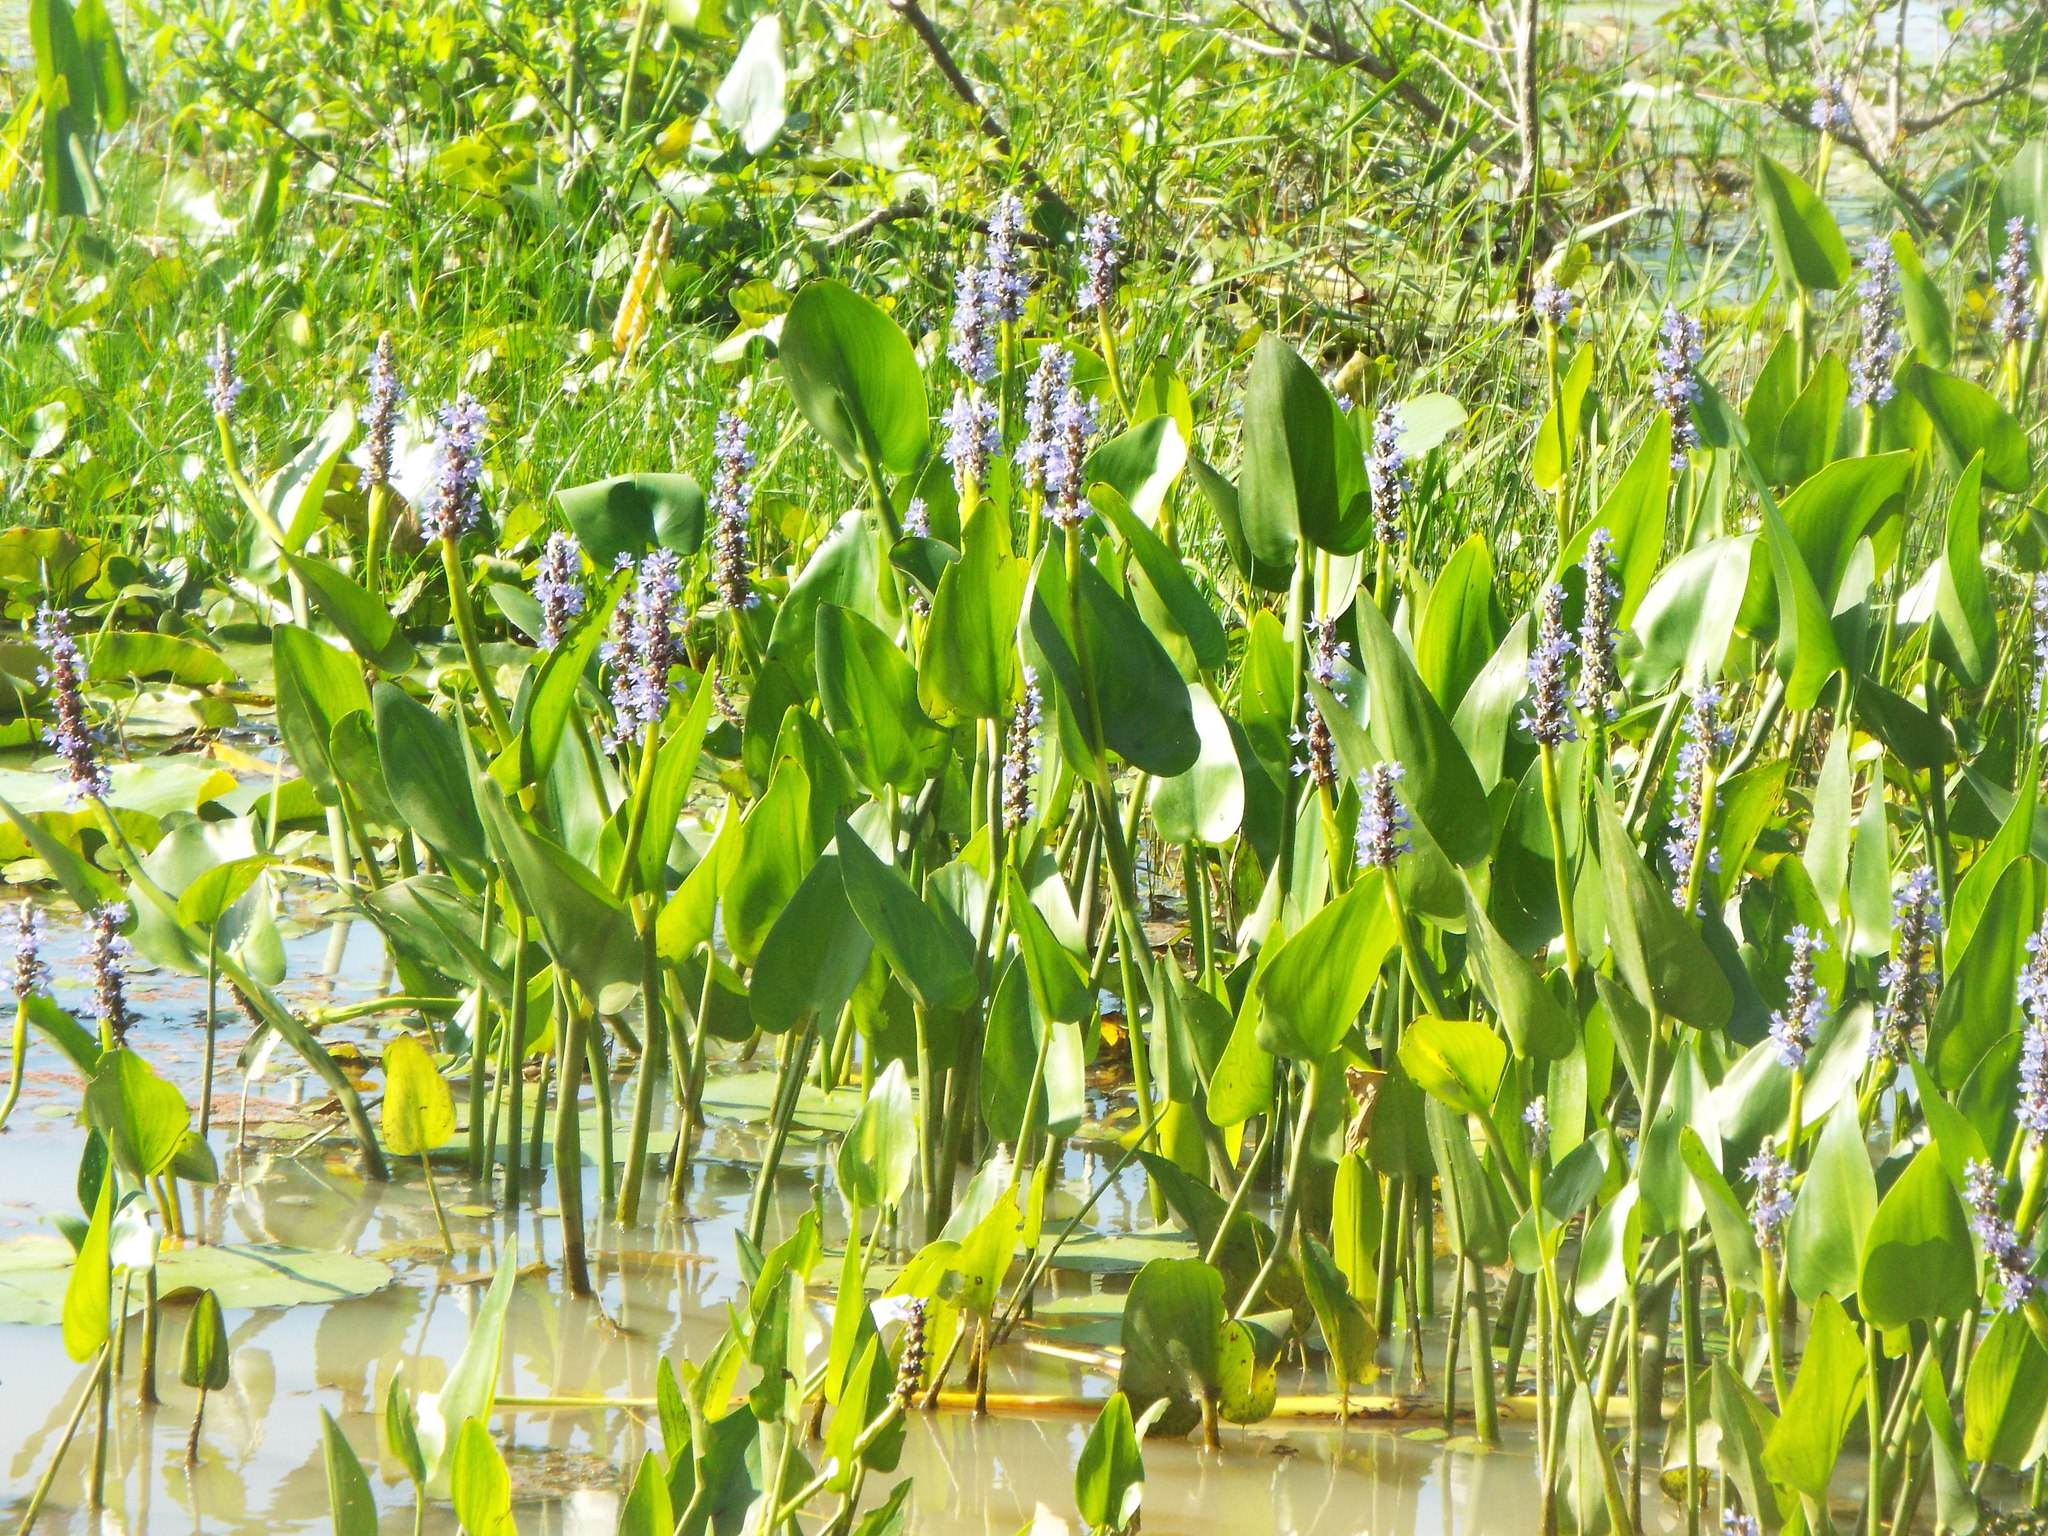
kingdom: Plantae
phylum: Tracheophyta
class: Liliopsida
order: Commelinales
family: Pontederiaceae
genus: Pontederia
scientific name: Pontederia cordata
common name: Pickerelweed
